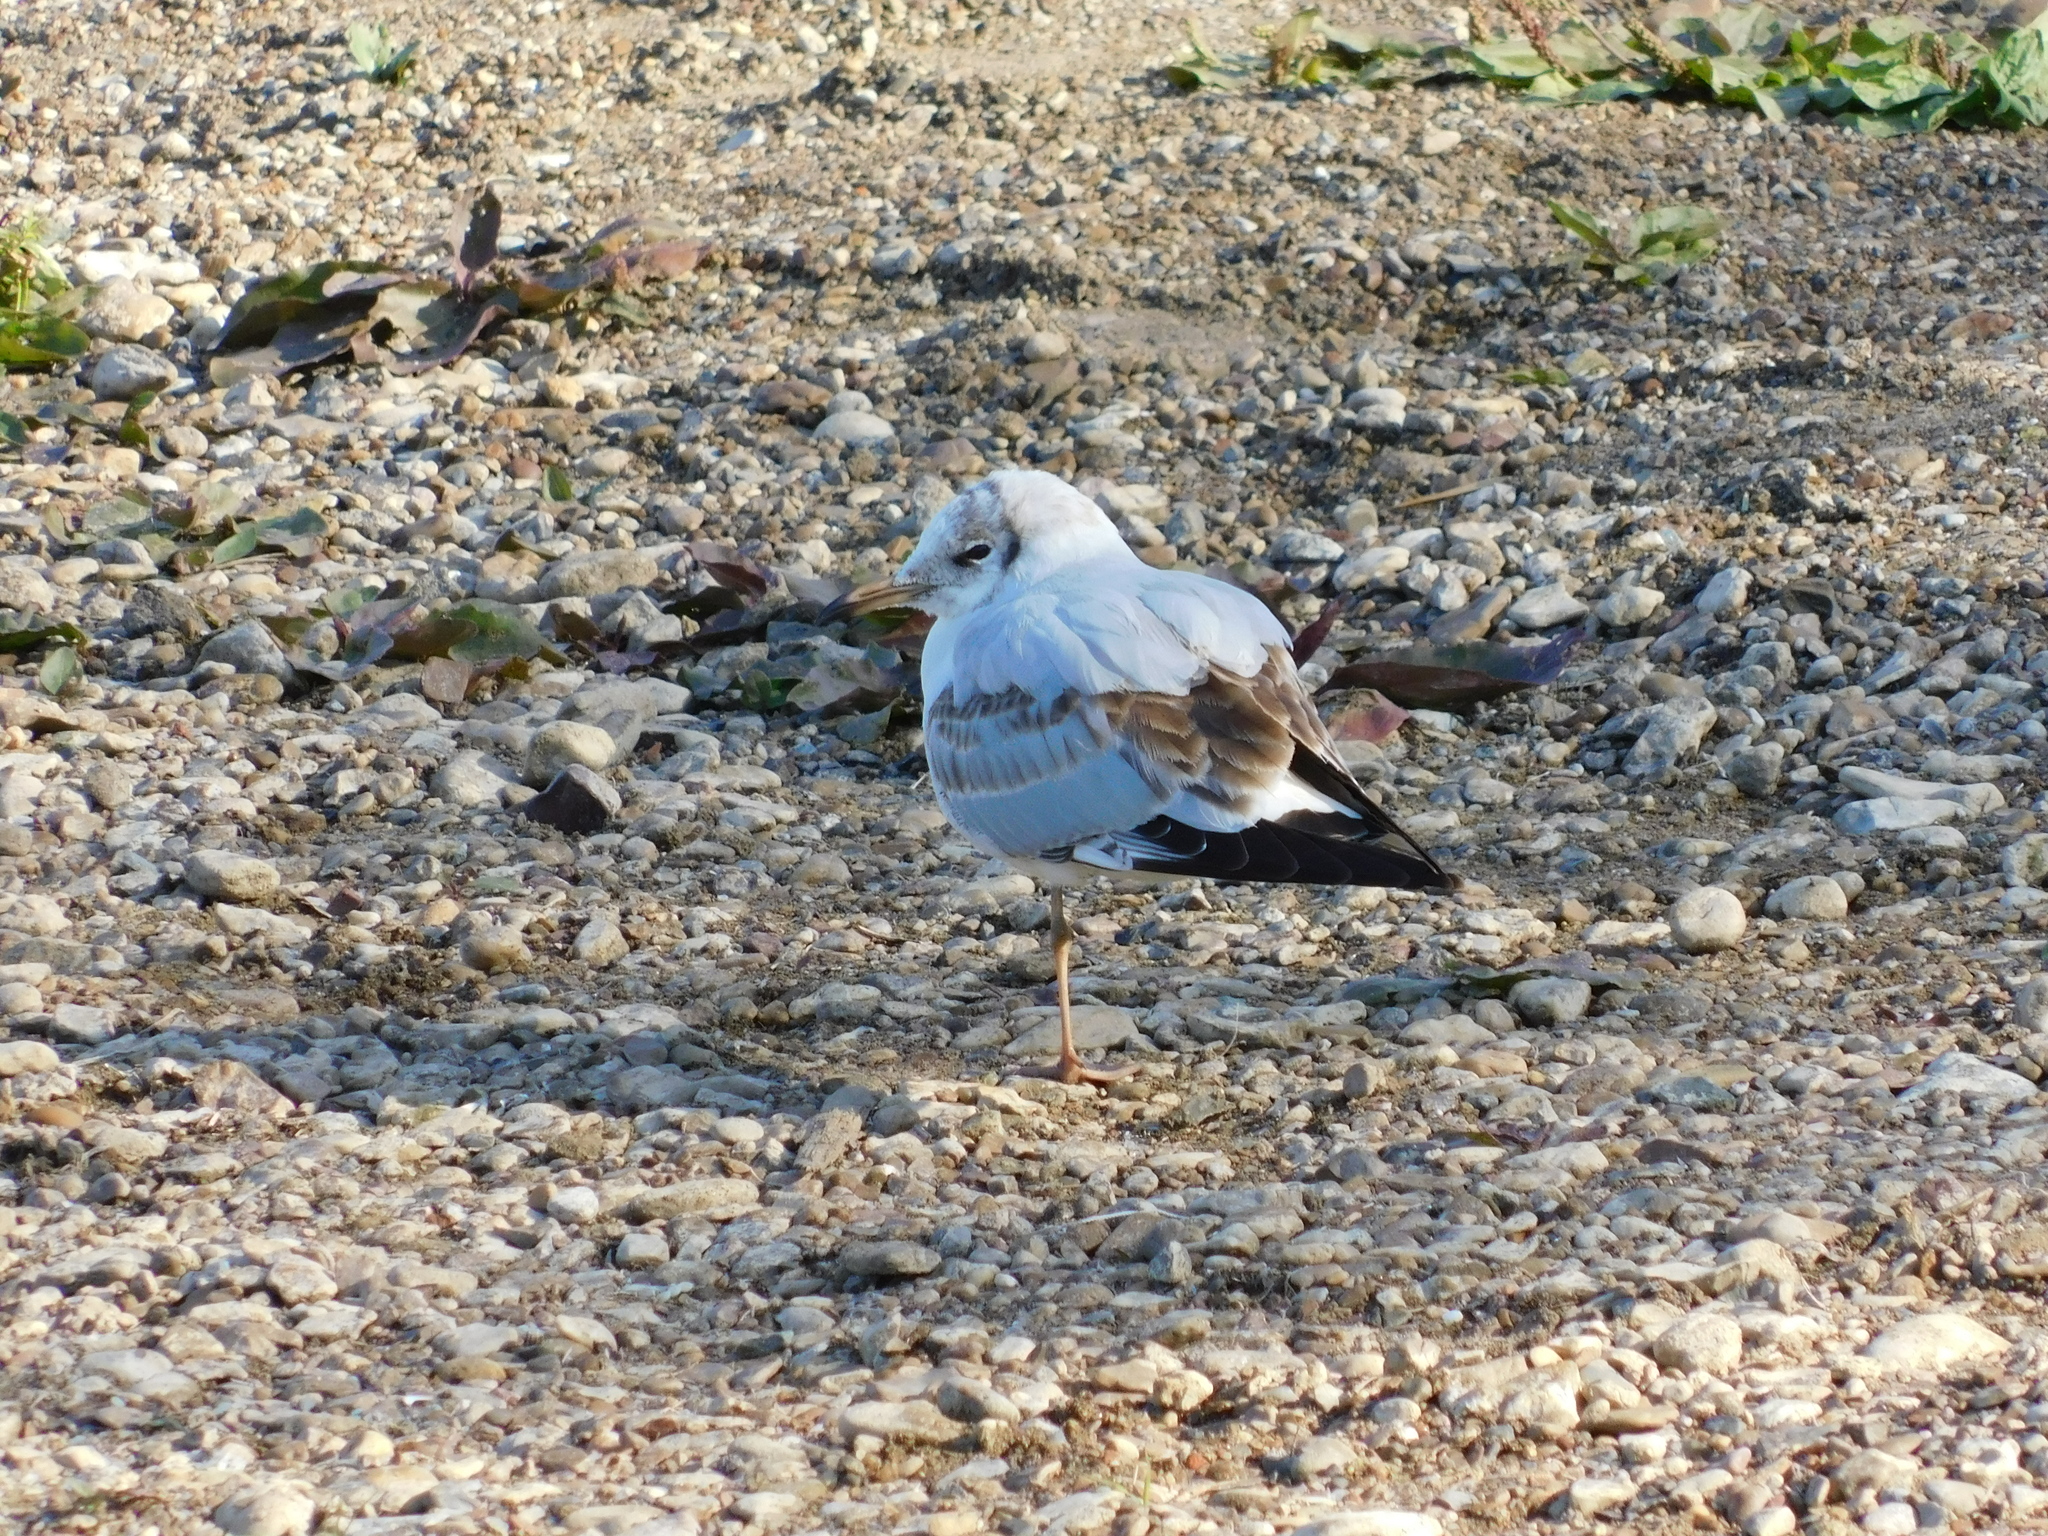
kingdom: Animalia
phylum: Chordata
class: Aves
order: Charadriiformes
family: Laridae
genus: Chroicocephalus
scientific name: Chroicocephalus ridibundus
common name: Black-headed gull
